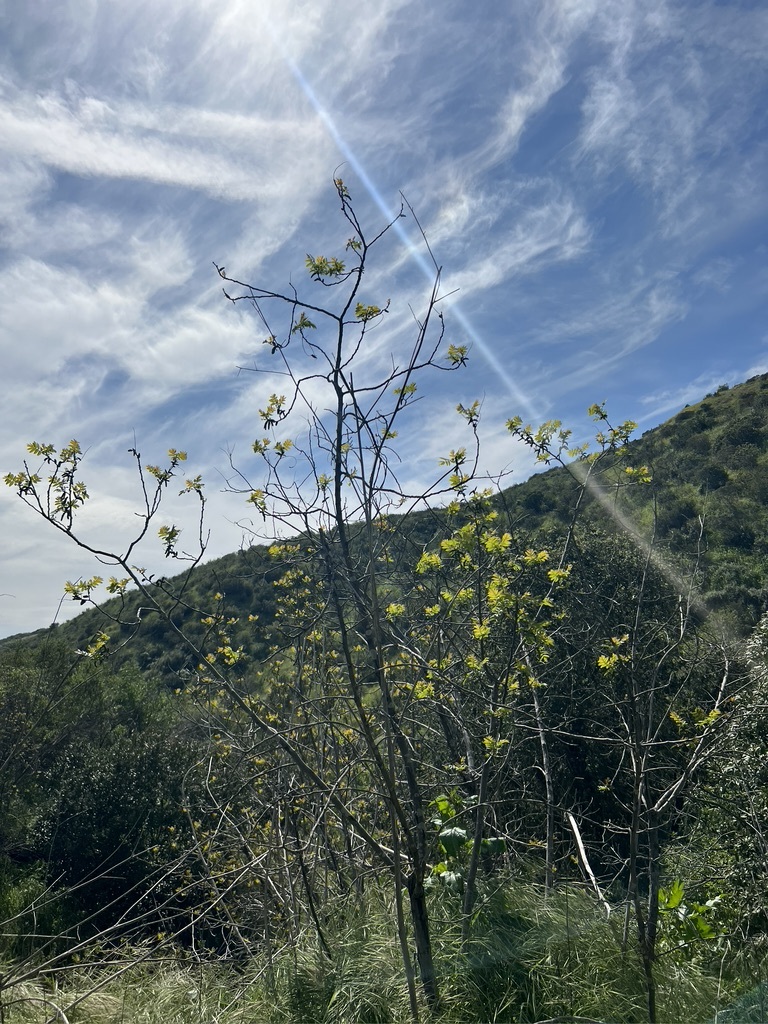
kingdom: Plantae
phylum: Tracheophyta
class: Magnoliopsida
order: Fagales
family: Juglandaceae
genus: Juglans
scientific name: Juglans californica
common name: Southern california black walnut
